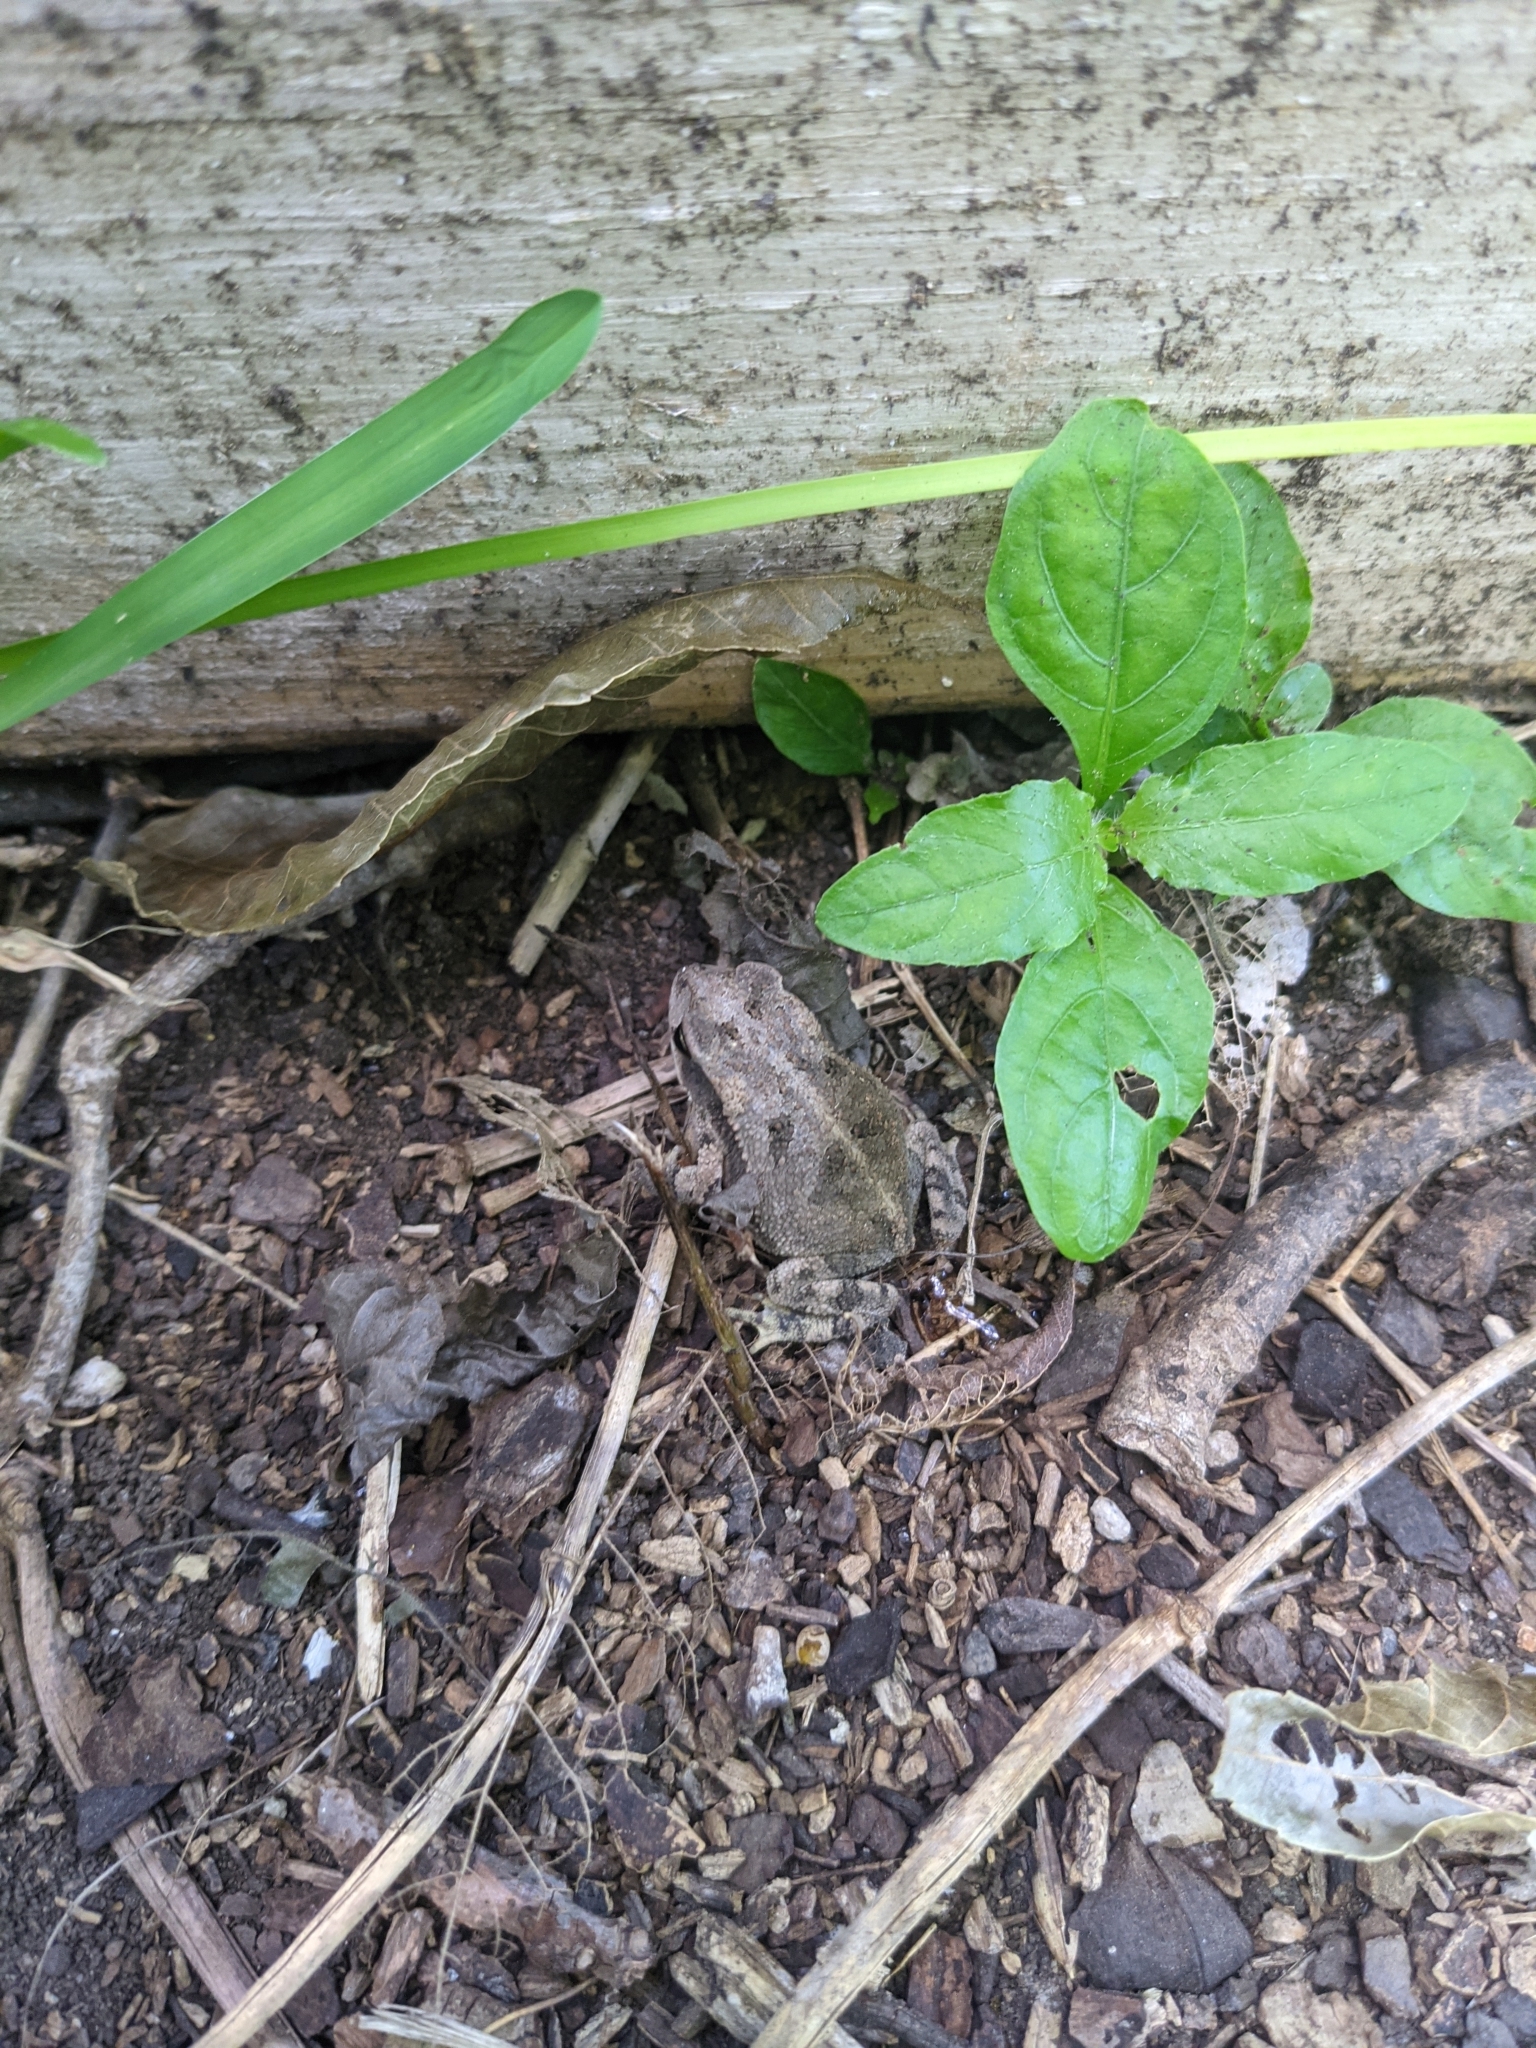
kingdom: Animalia
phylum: Chordata
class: Amphibia
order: Anura
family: Bufonidae
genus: Incilius
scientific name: Incilius nebulifer
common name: Gulf coast toad
